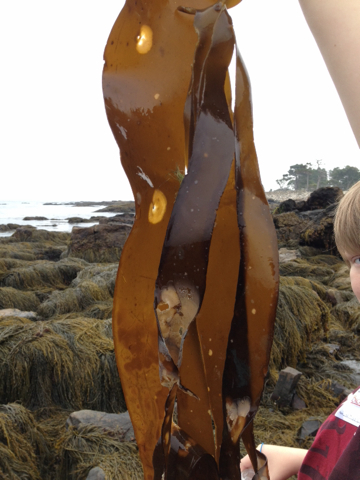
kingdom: Chromista
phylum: Ochrophyta
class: Phaeophyceae
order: Laminariales
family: Laminariaceae
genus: Laminaria
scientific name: Laminaria digitata
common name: Oarweed
